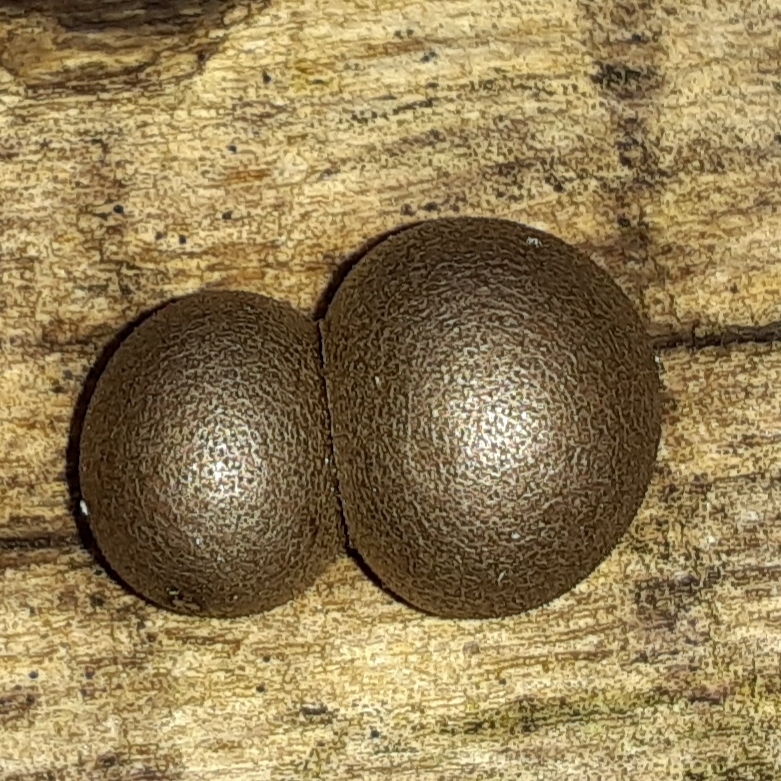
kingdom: Protozoa
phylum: Mycetozoa
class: Myxomycetes
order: Cribrariales
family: Tubiferaceae
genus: Lycogala
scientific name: Lycogala epidendrum
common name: Wolf's milk
